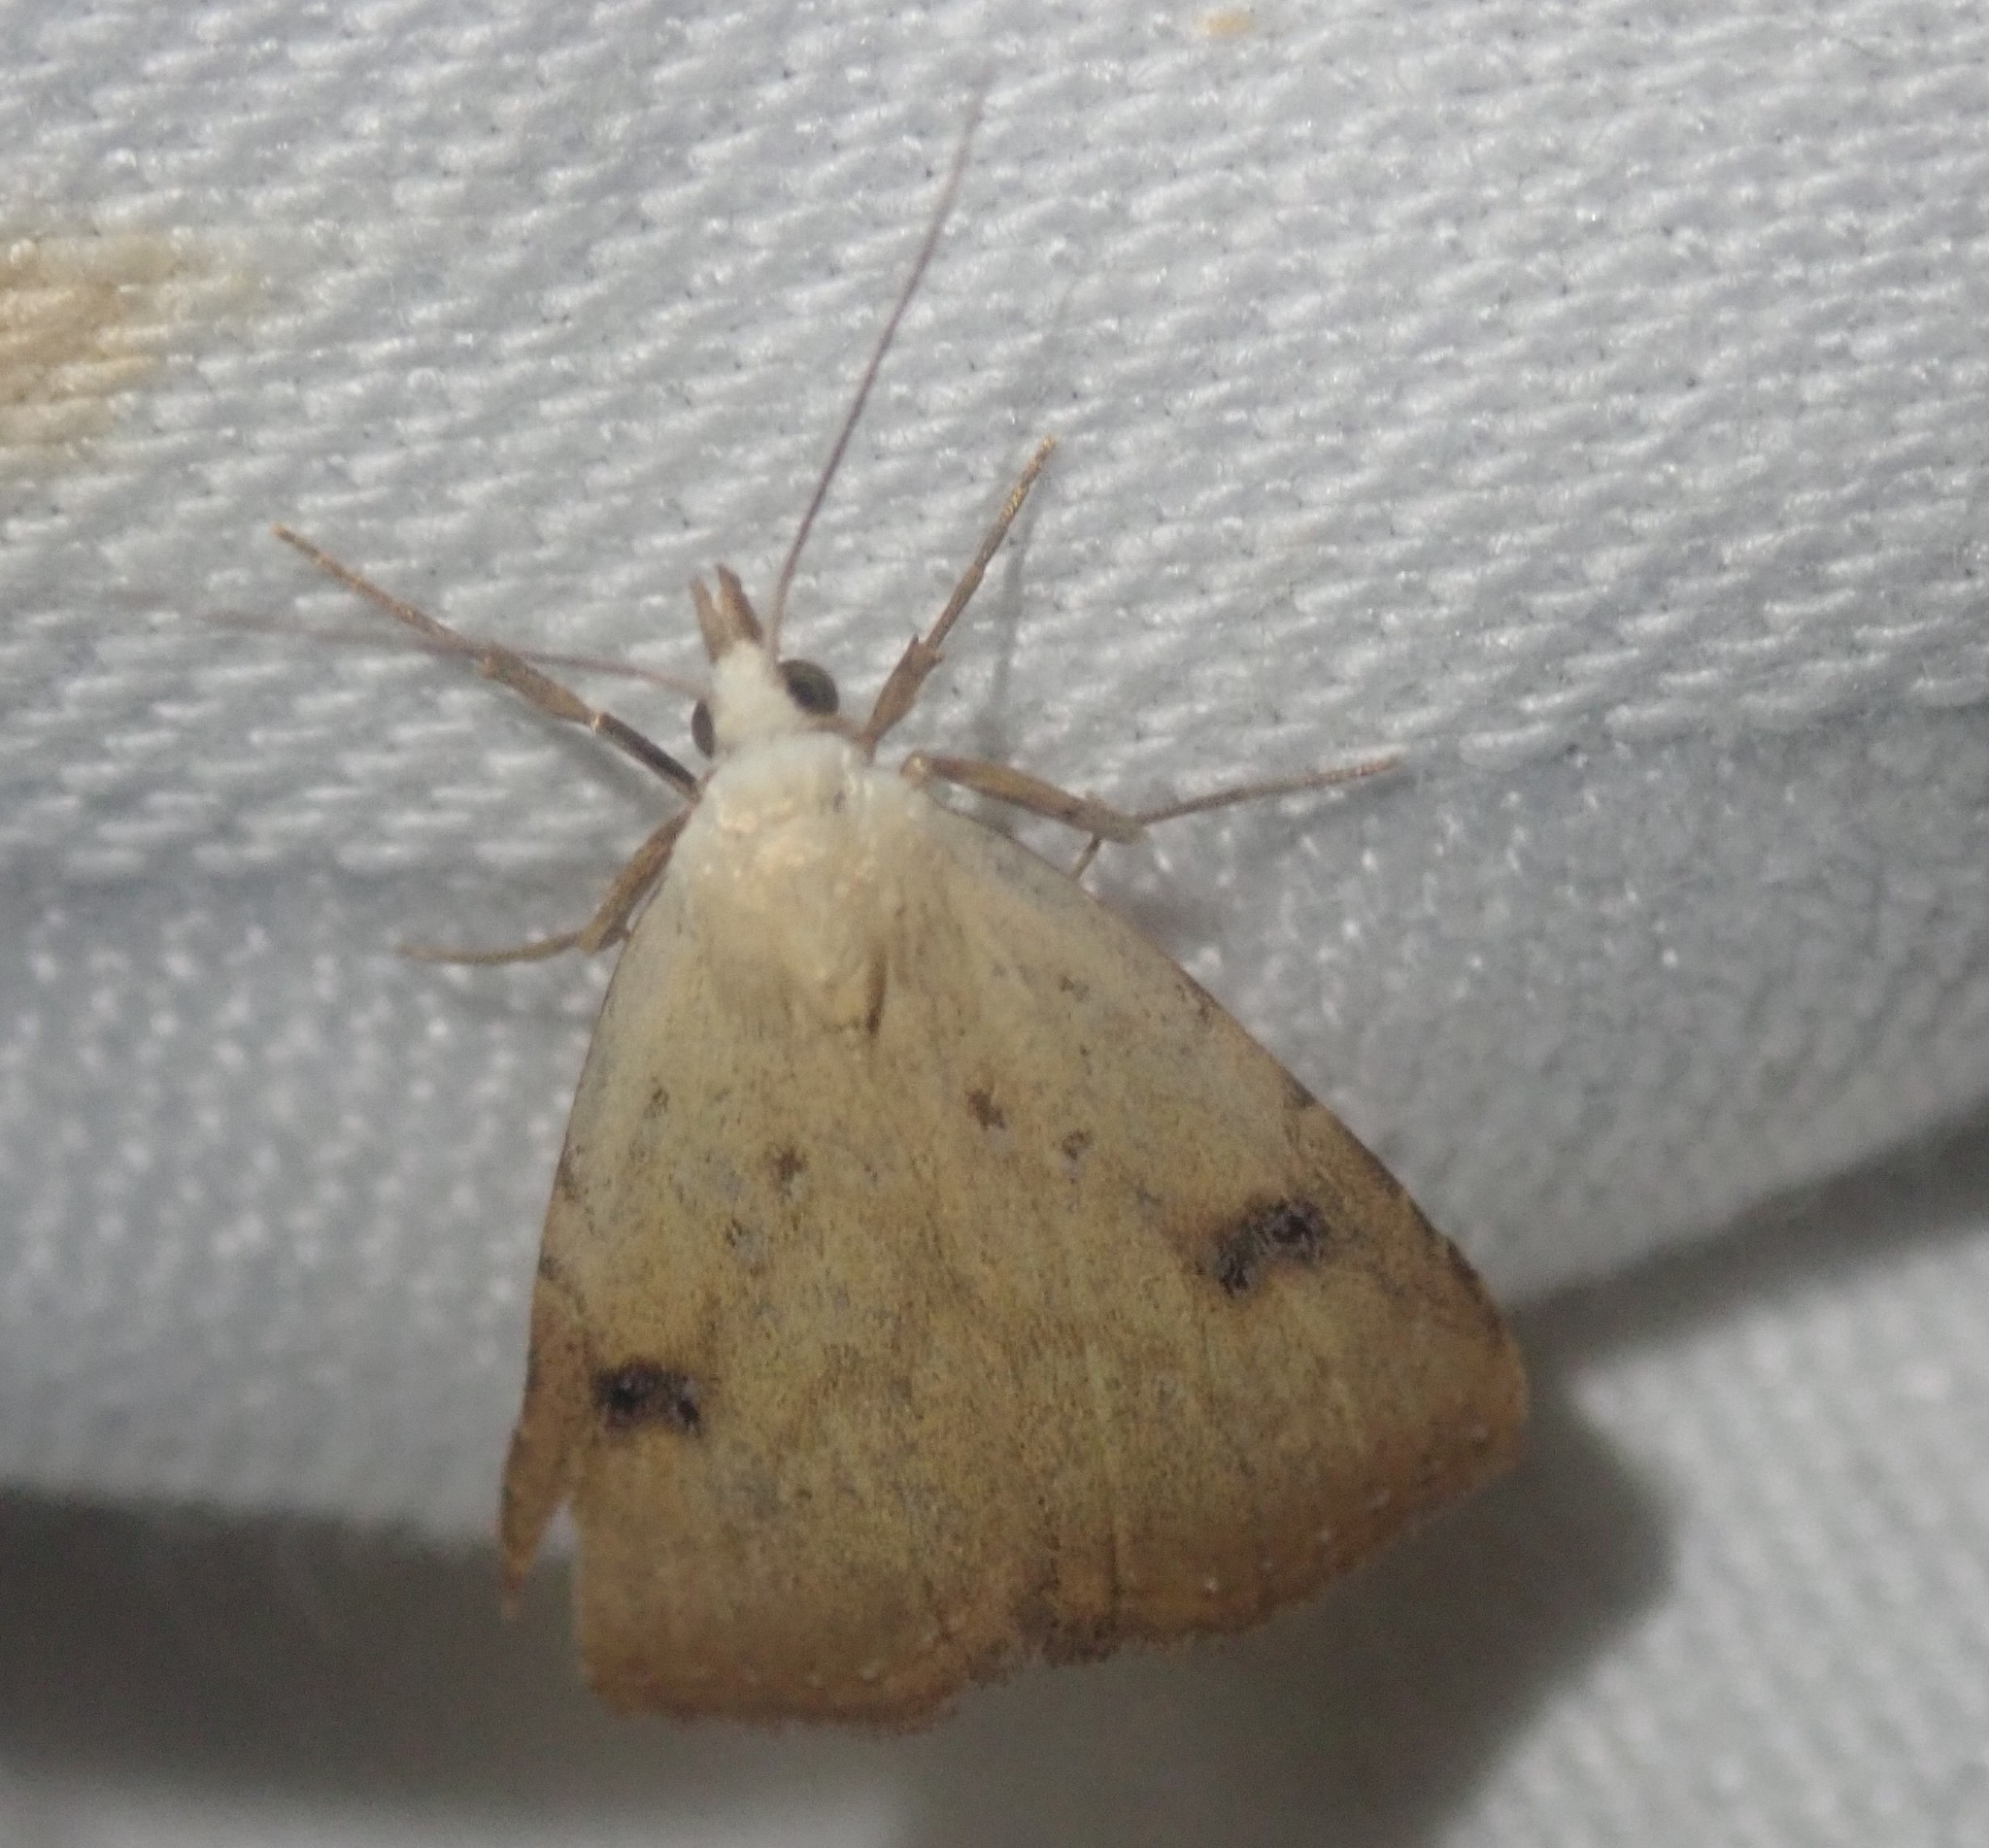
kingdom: Animalia
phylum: Arthropoda
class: Insecta
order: Lepidoptera
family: Erebidae
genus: Rivula
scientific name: Rivula sericealis
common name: Straw dot
